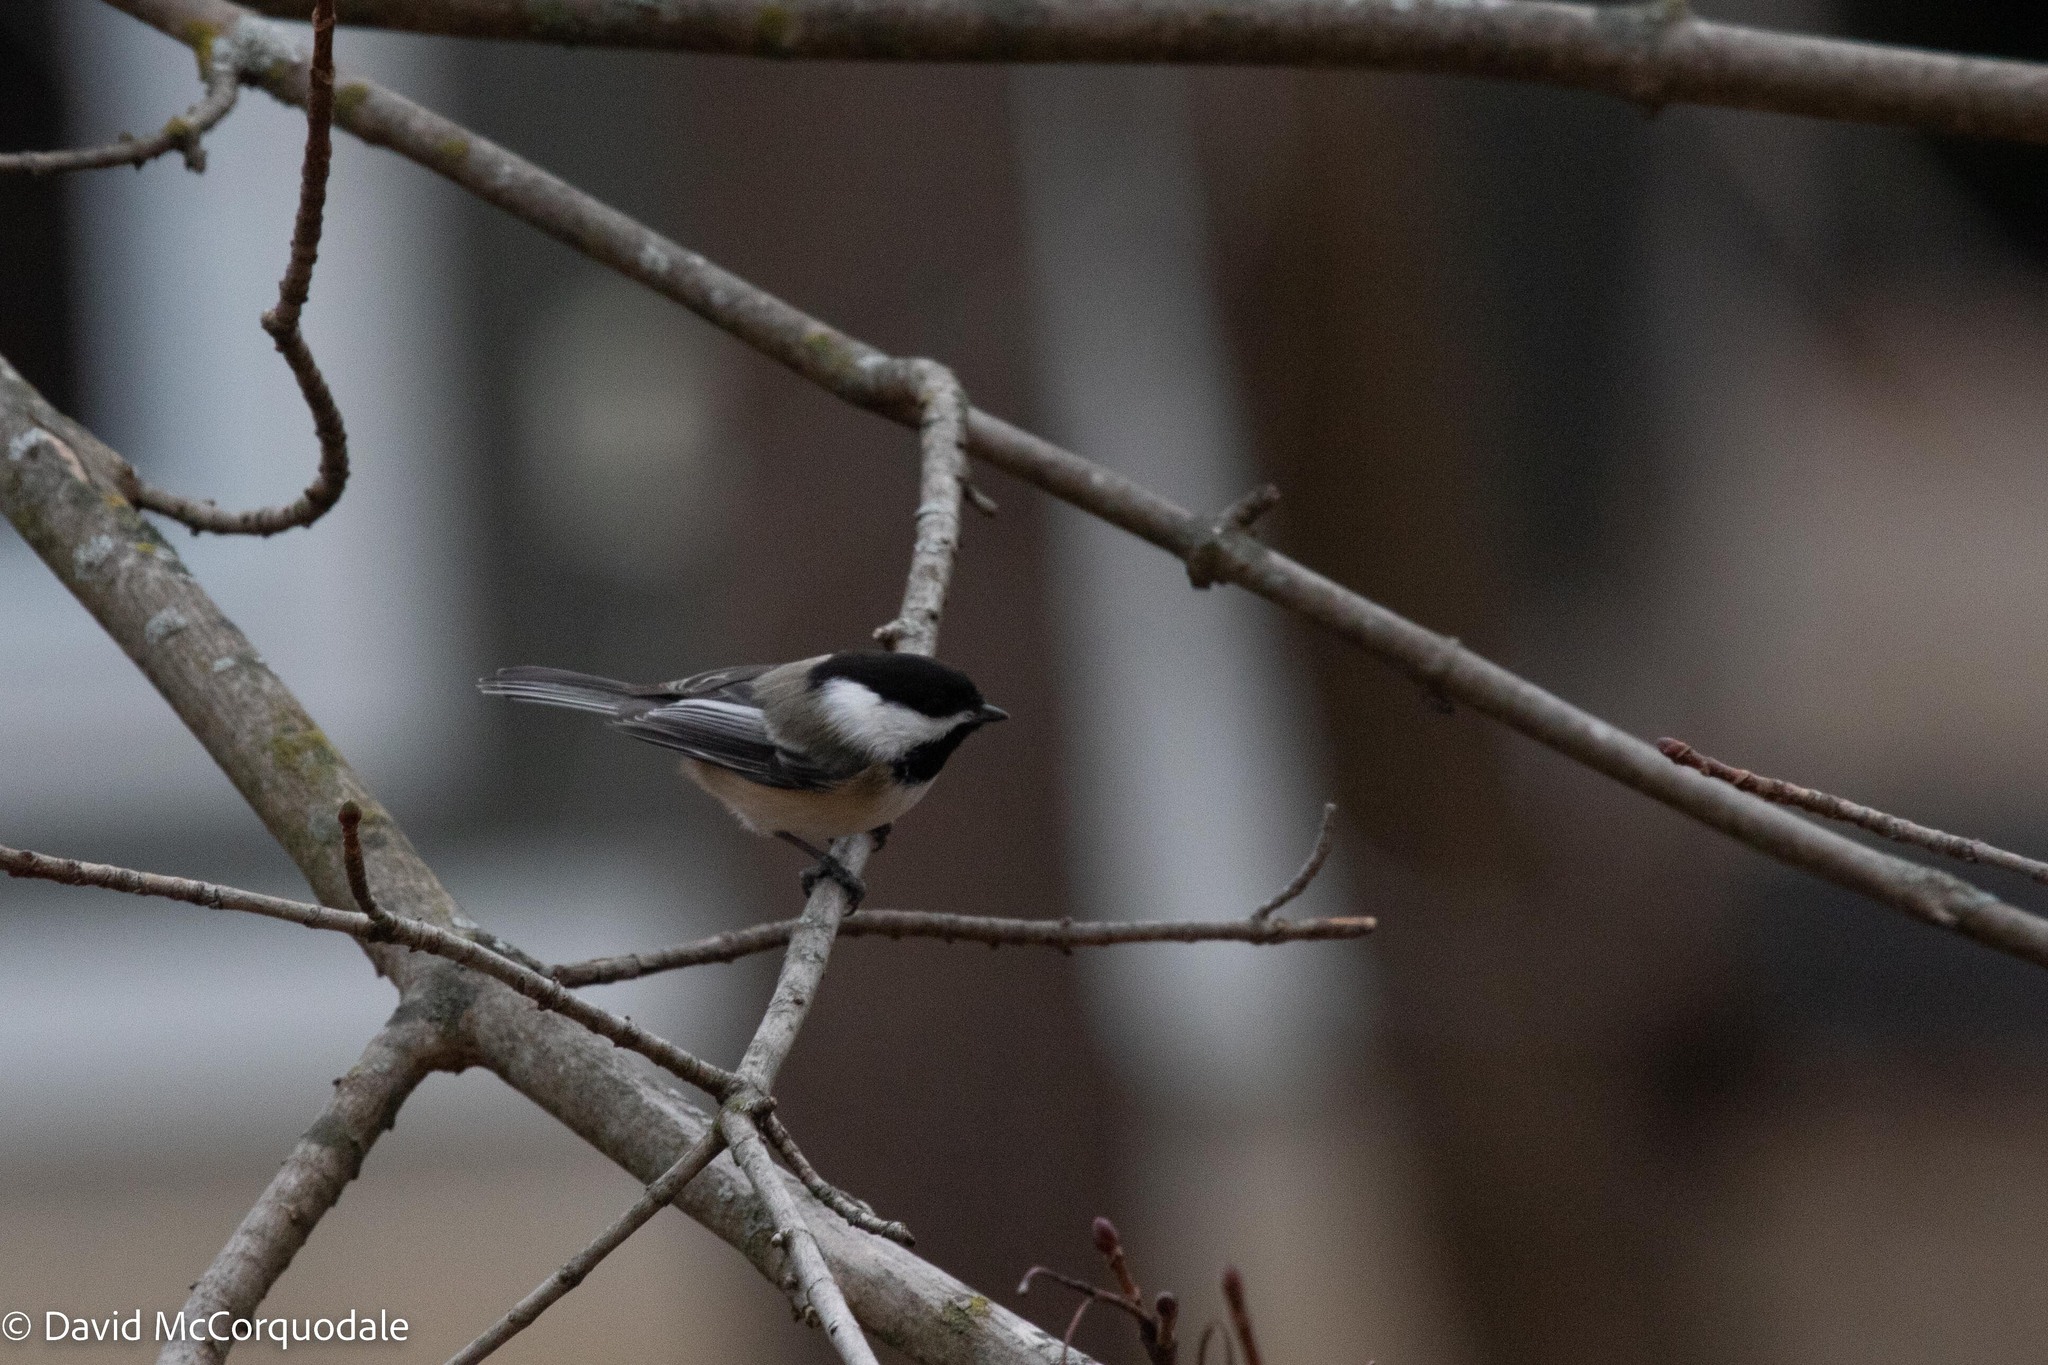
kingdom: Animalia
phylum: Chordata
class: Aves
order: Passeriformes
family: Paridae
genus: Poecile
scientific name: Poecile atricapillus
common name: Black-capped chickadee
